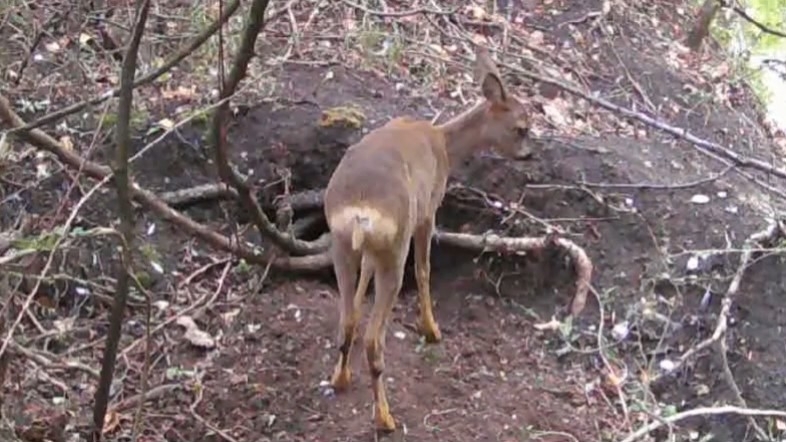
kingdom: Animalia
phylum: Chordata
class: Mammalia
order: Artiodactyla
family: Cervidae
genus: Capreolus
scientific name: Capreolus capreolus
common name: Western roe deer
